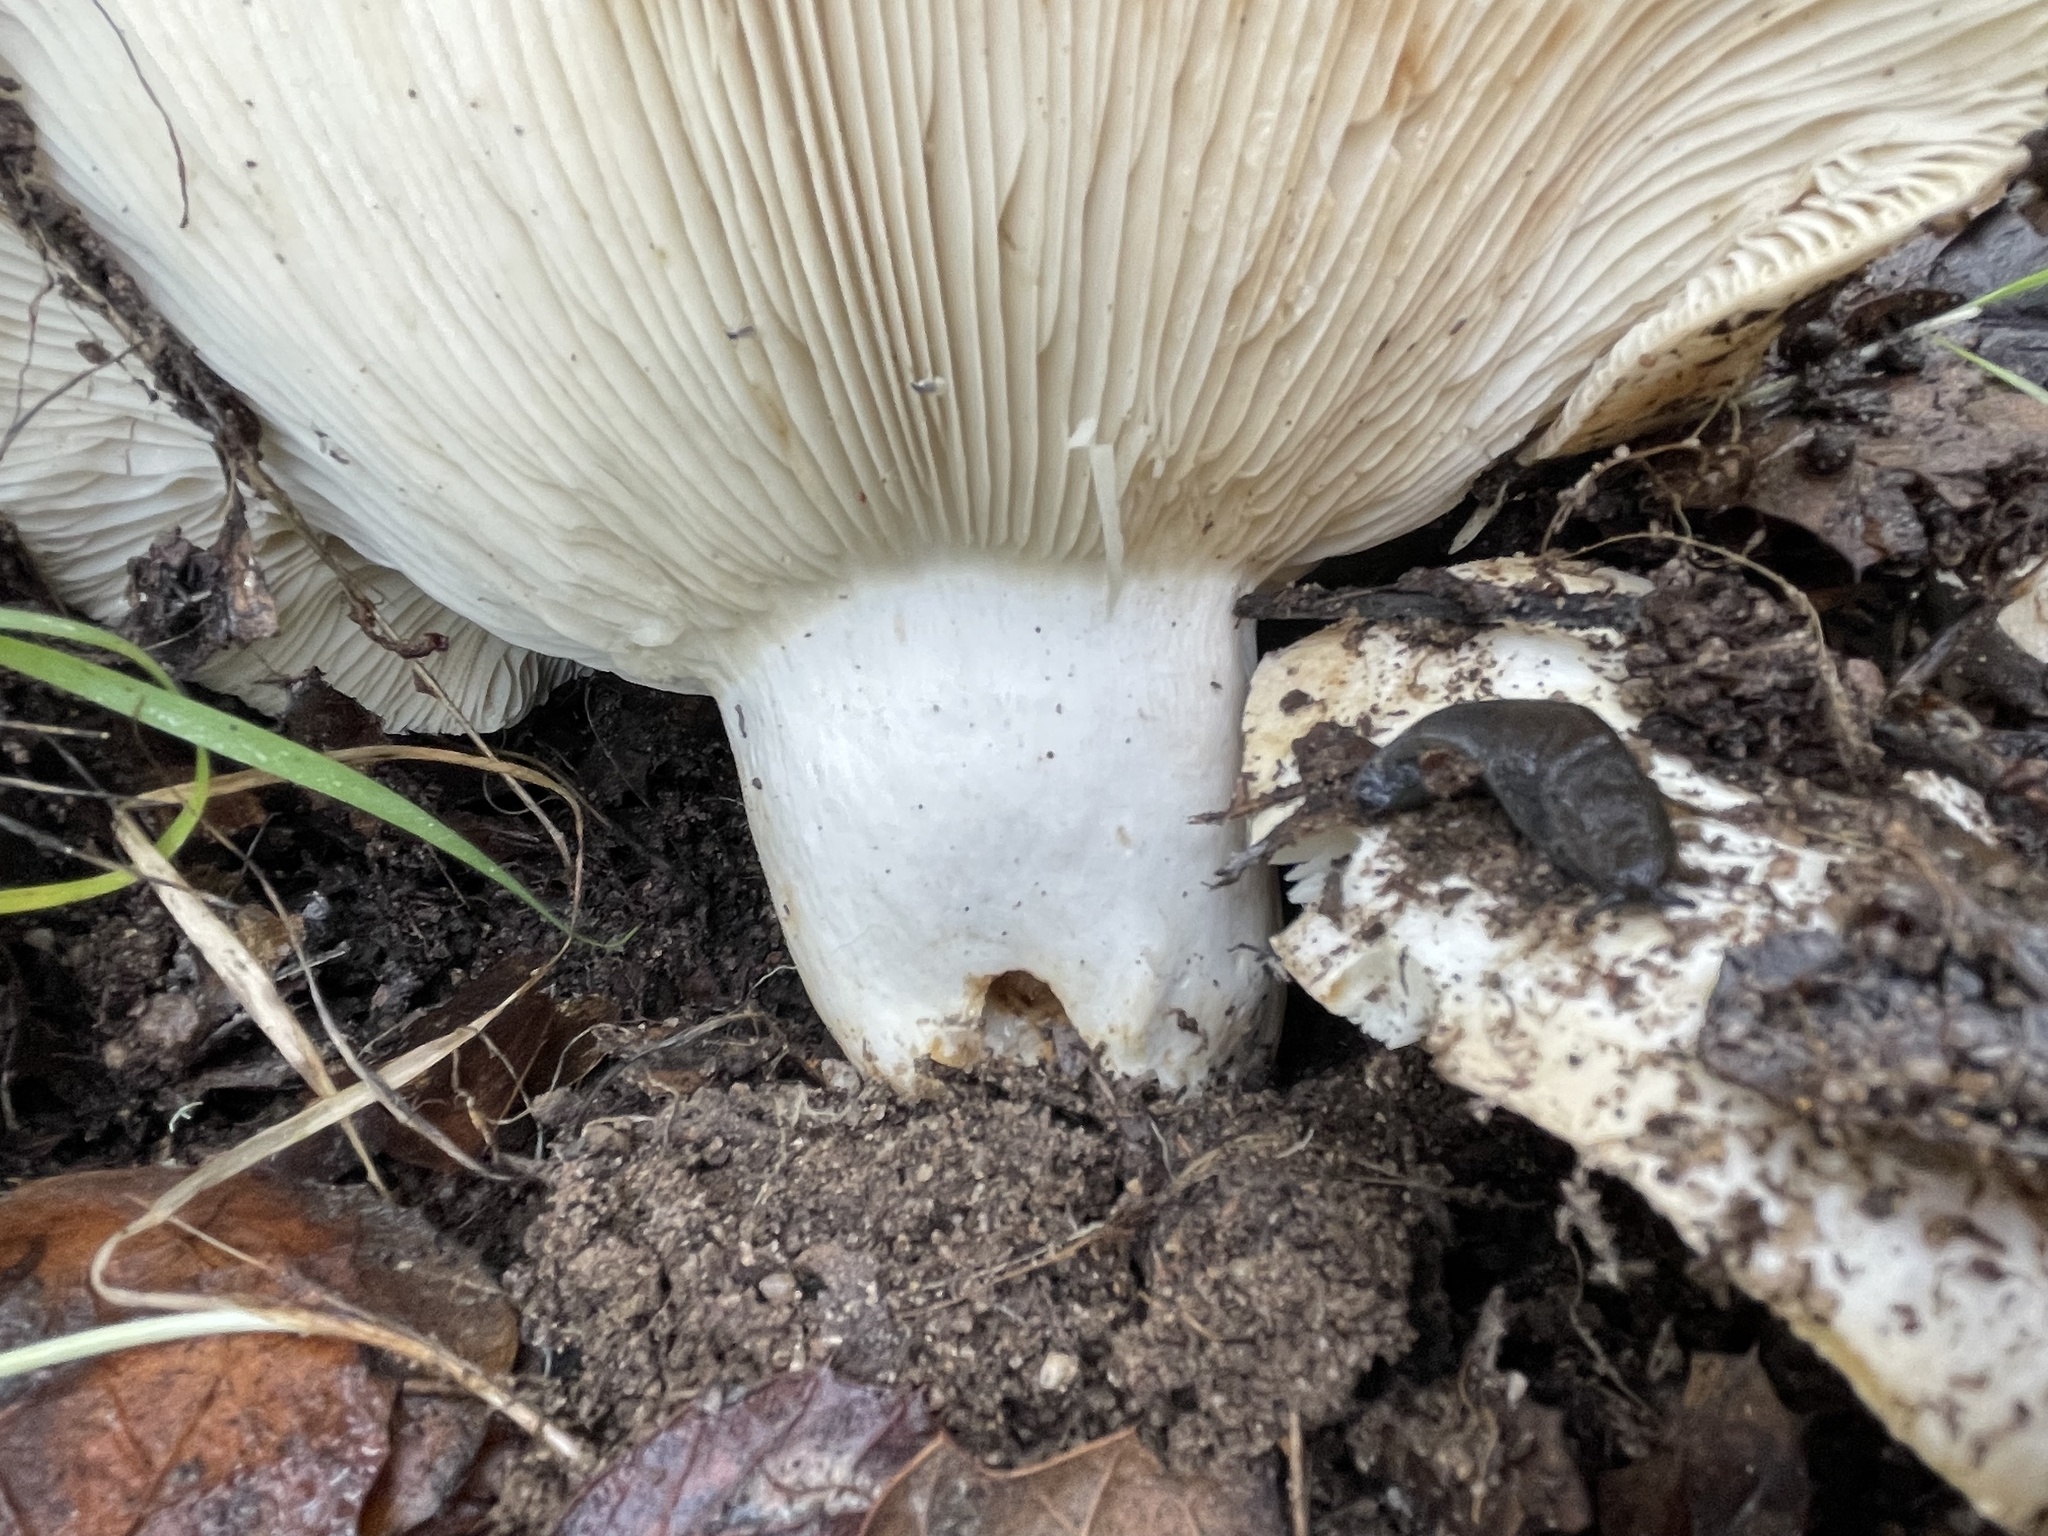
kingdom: Animalia
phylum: Mollusca
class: Gastropoda
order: Stylommatophora
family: Ariolimacidae
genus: Hesperarion
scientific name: Hesperarion niger
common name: Black western slug
